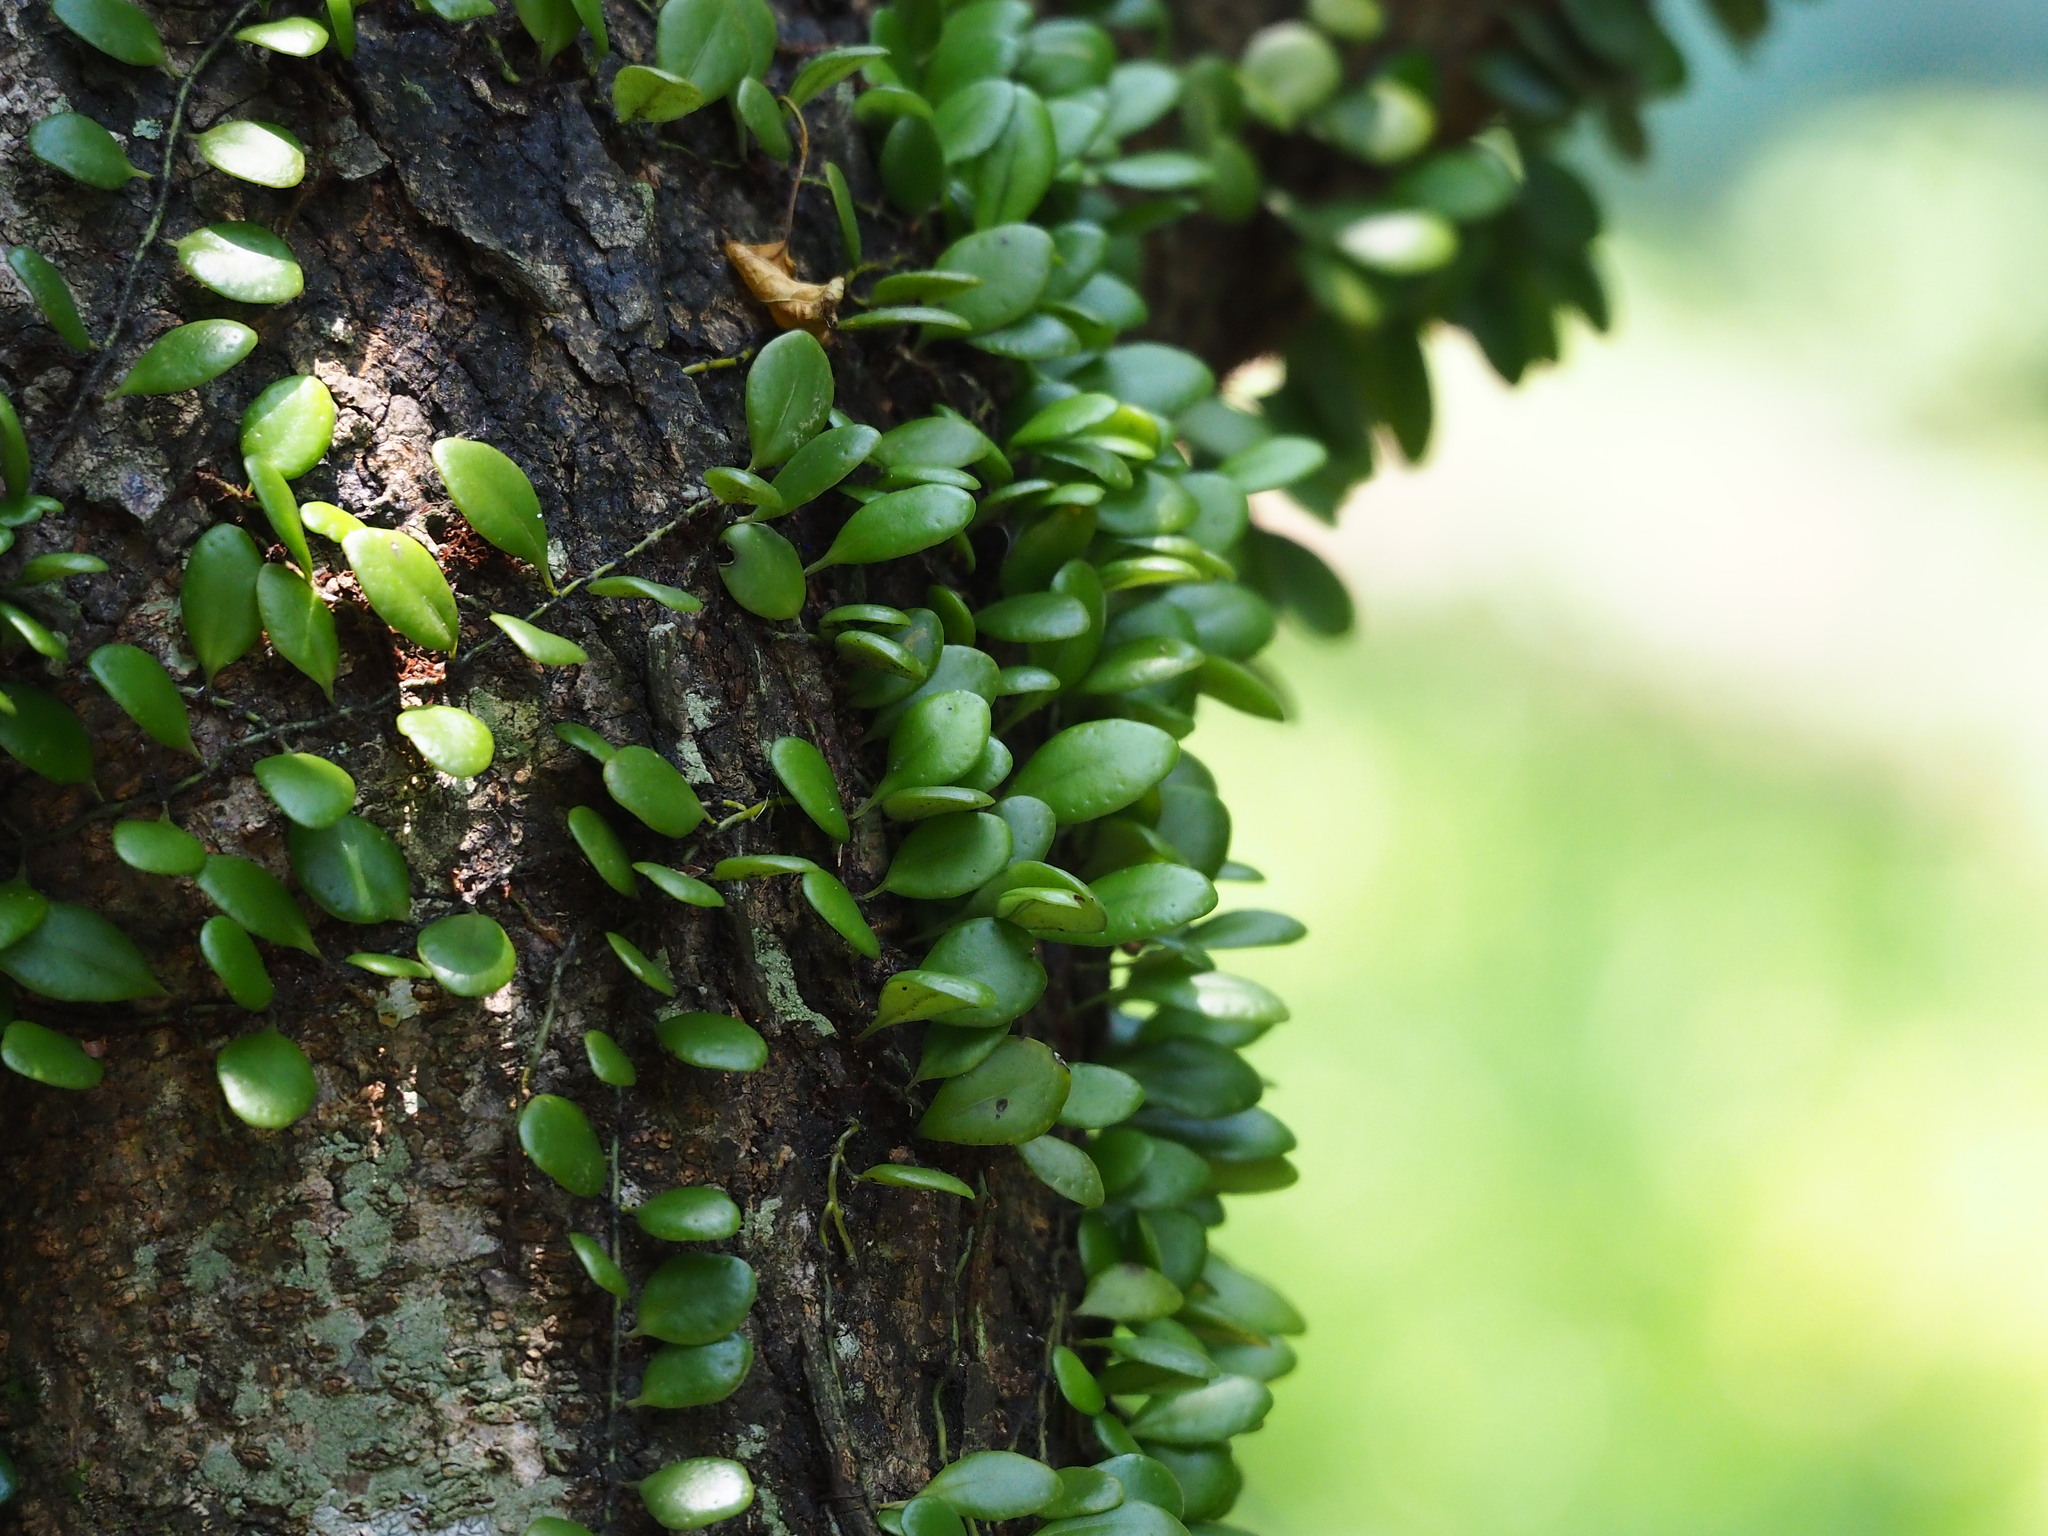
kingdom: Plantae
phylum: Tracheophyta
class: Polypodiopsida
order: Polypodiales
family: Polypodiaceae
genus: Lepisorus
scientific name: Lepisorus microphyllus
